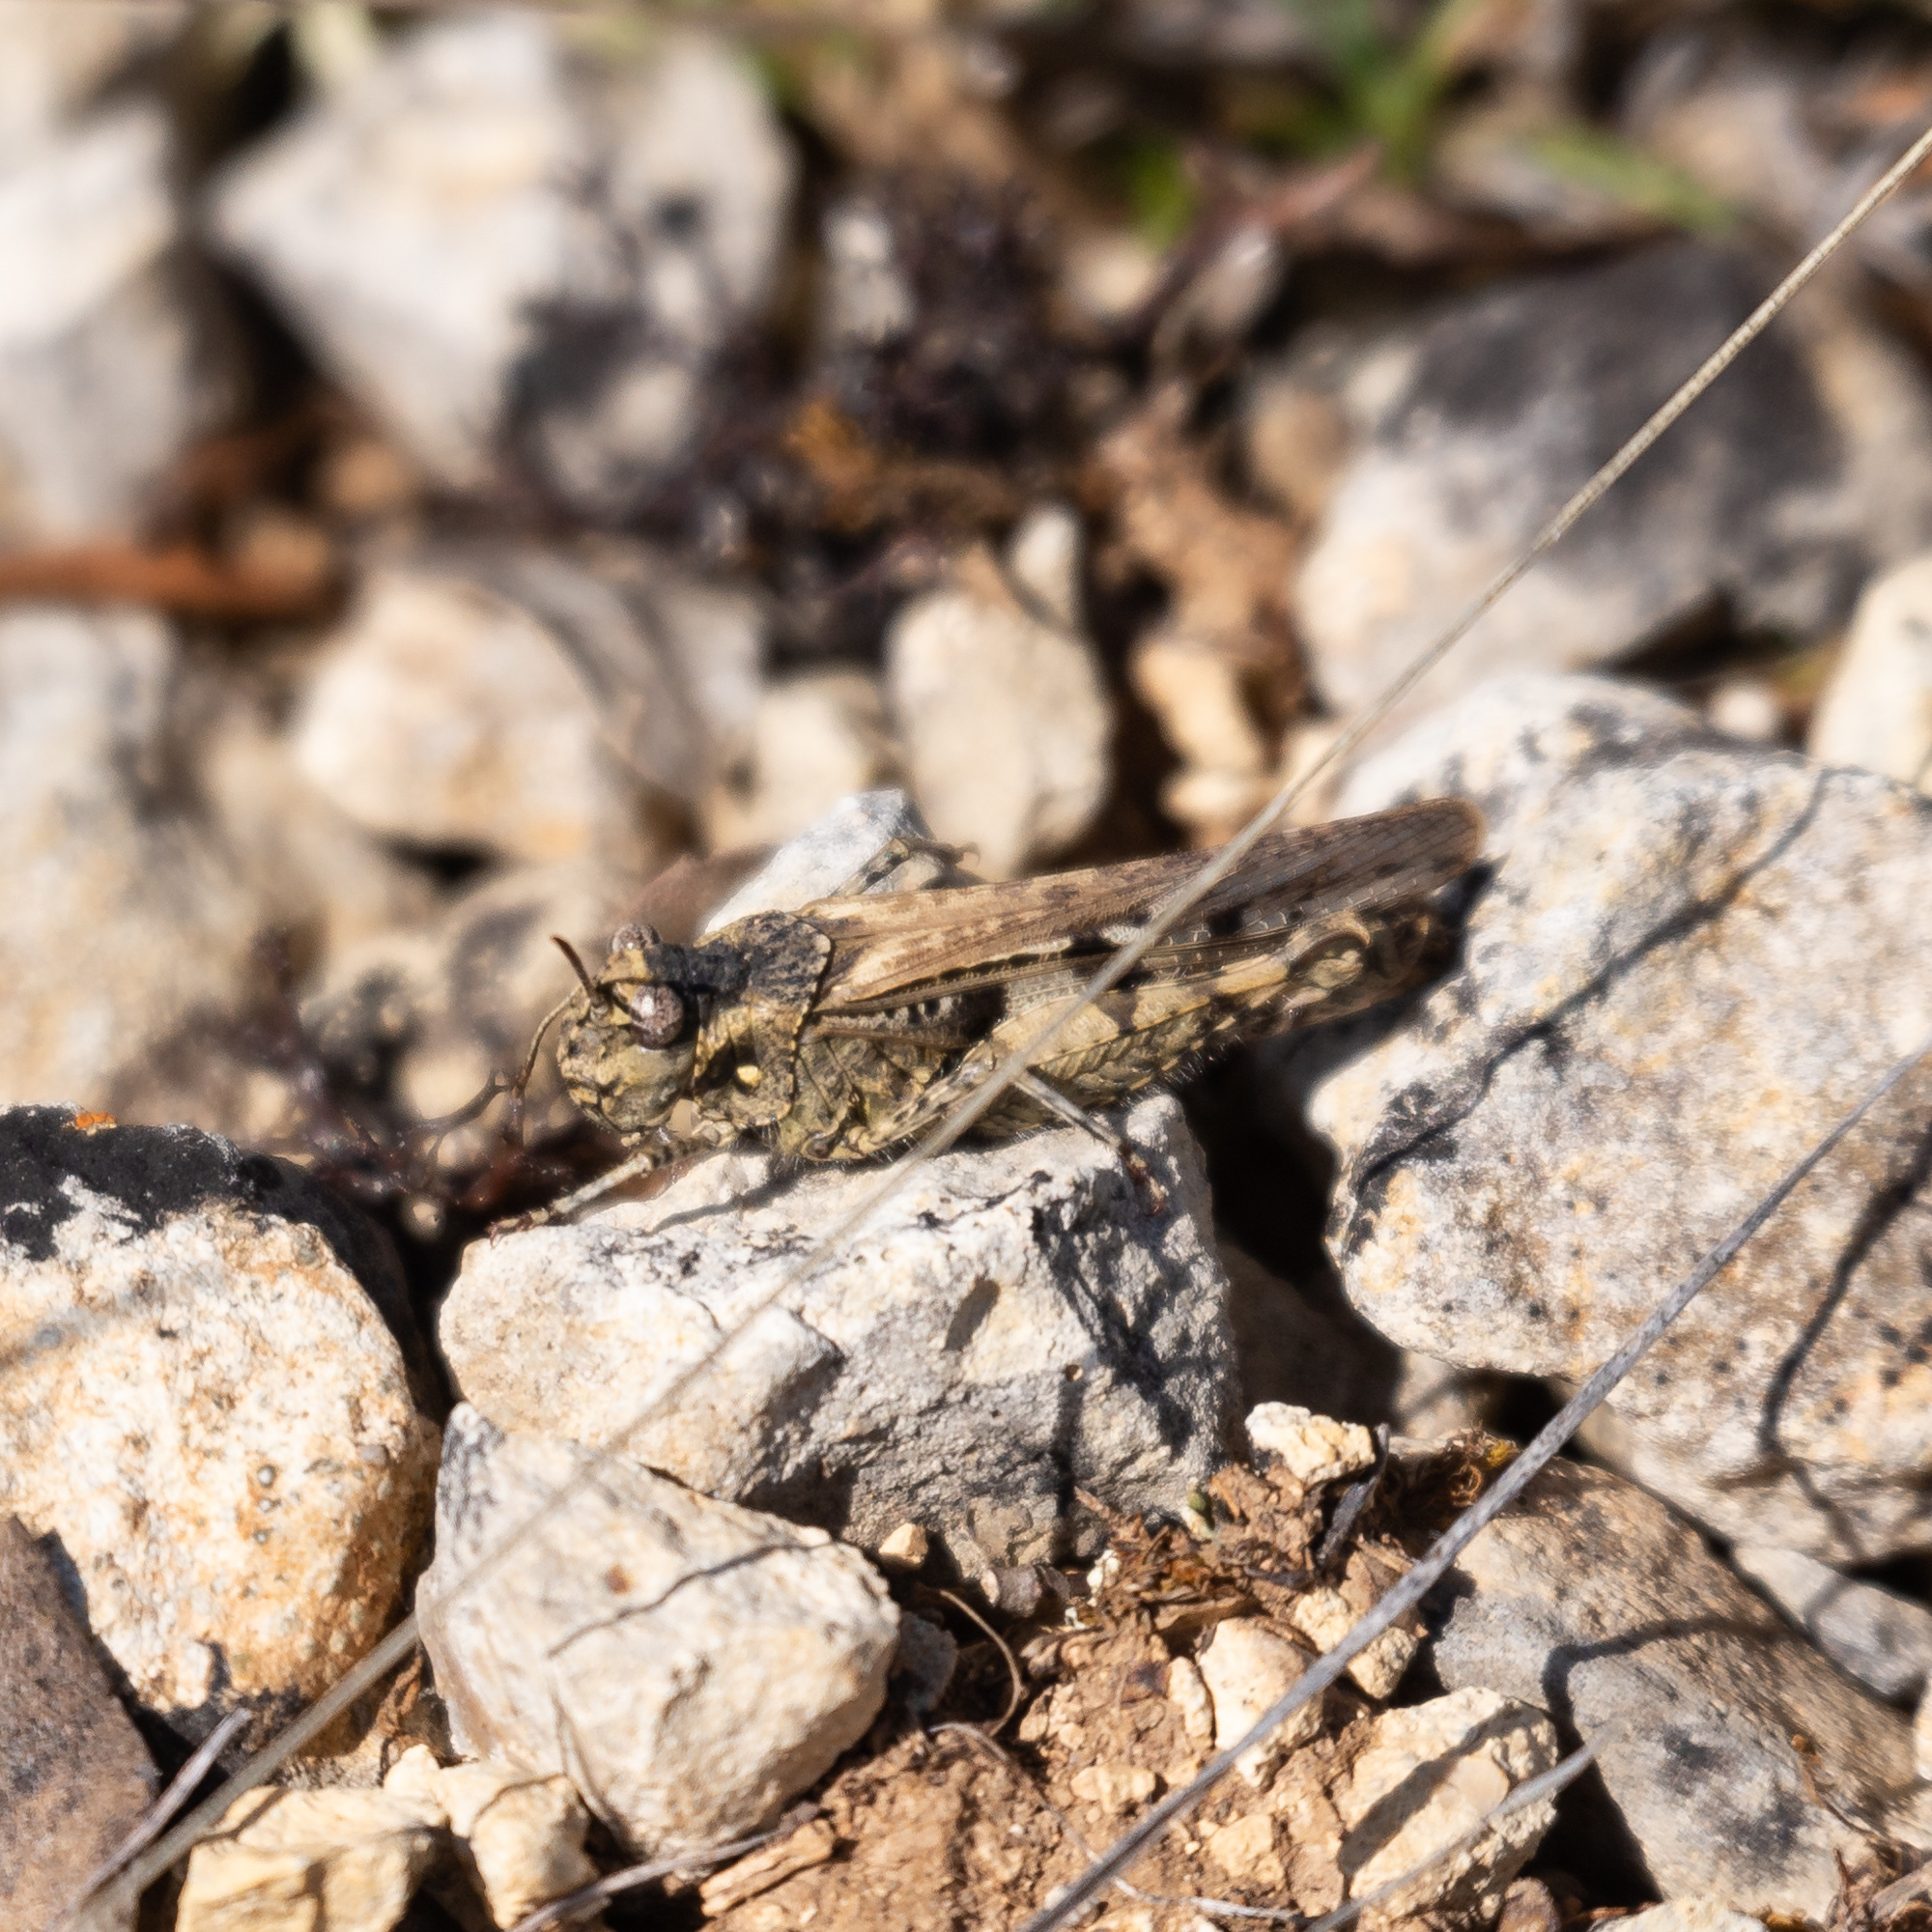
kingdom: Animalia
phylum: Arthropoda
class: Insecta
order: Orthoptera
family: Acrididae
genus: Acrotylus
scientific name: Acrotylus insubricus
